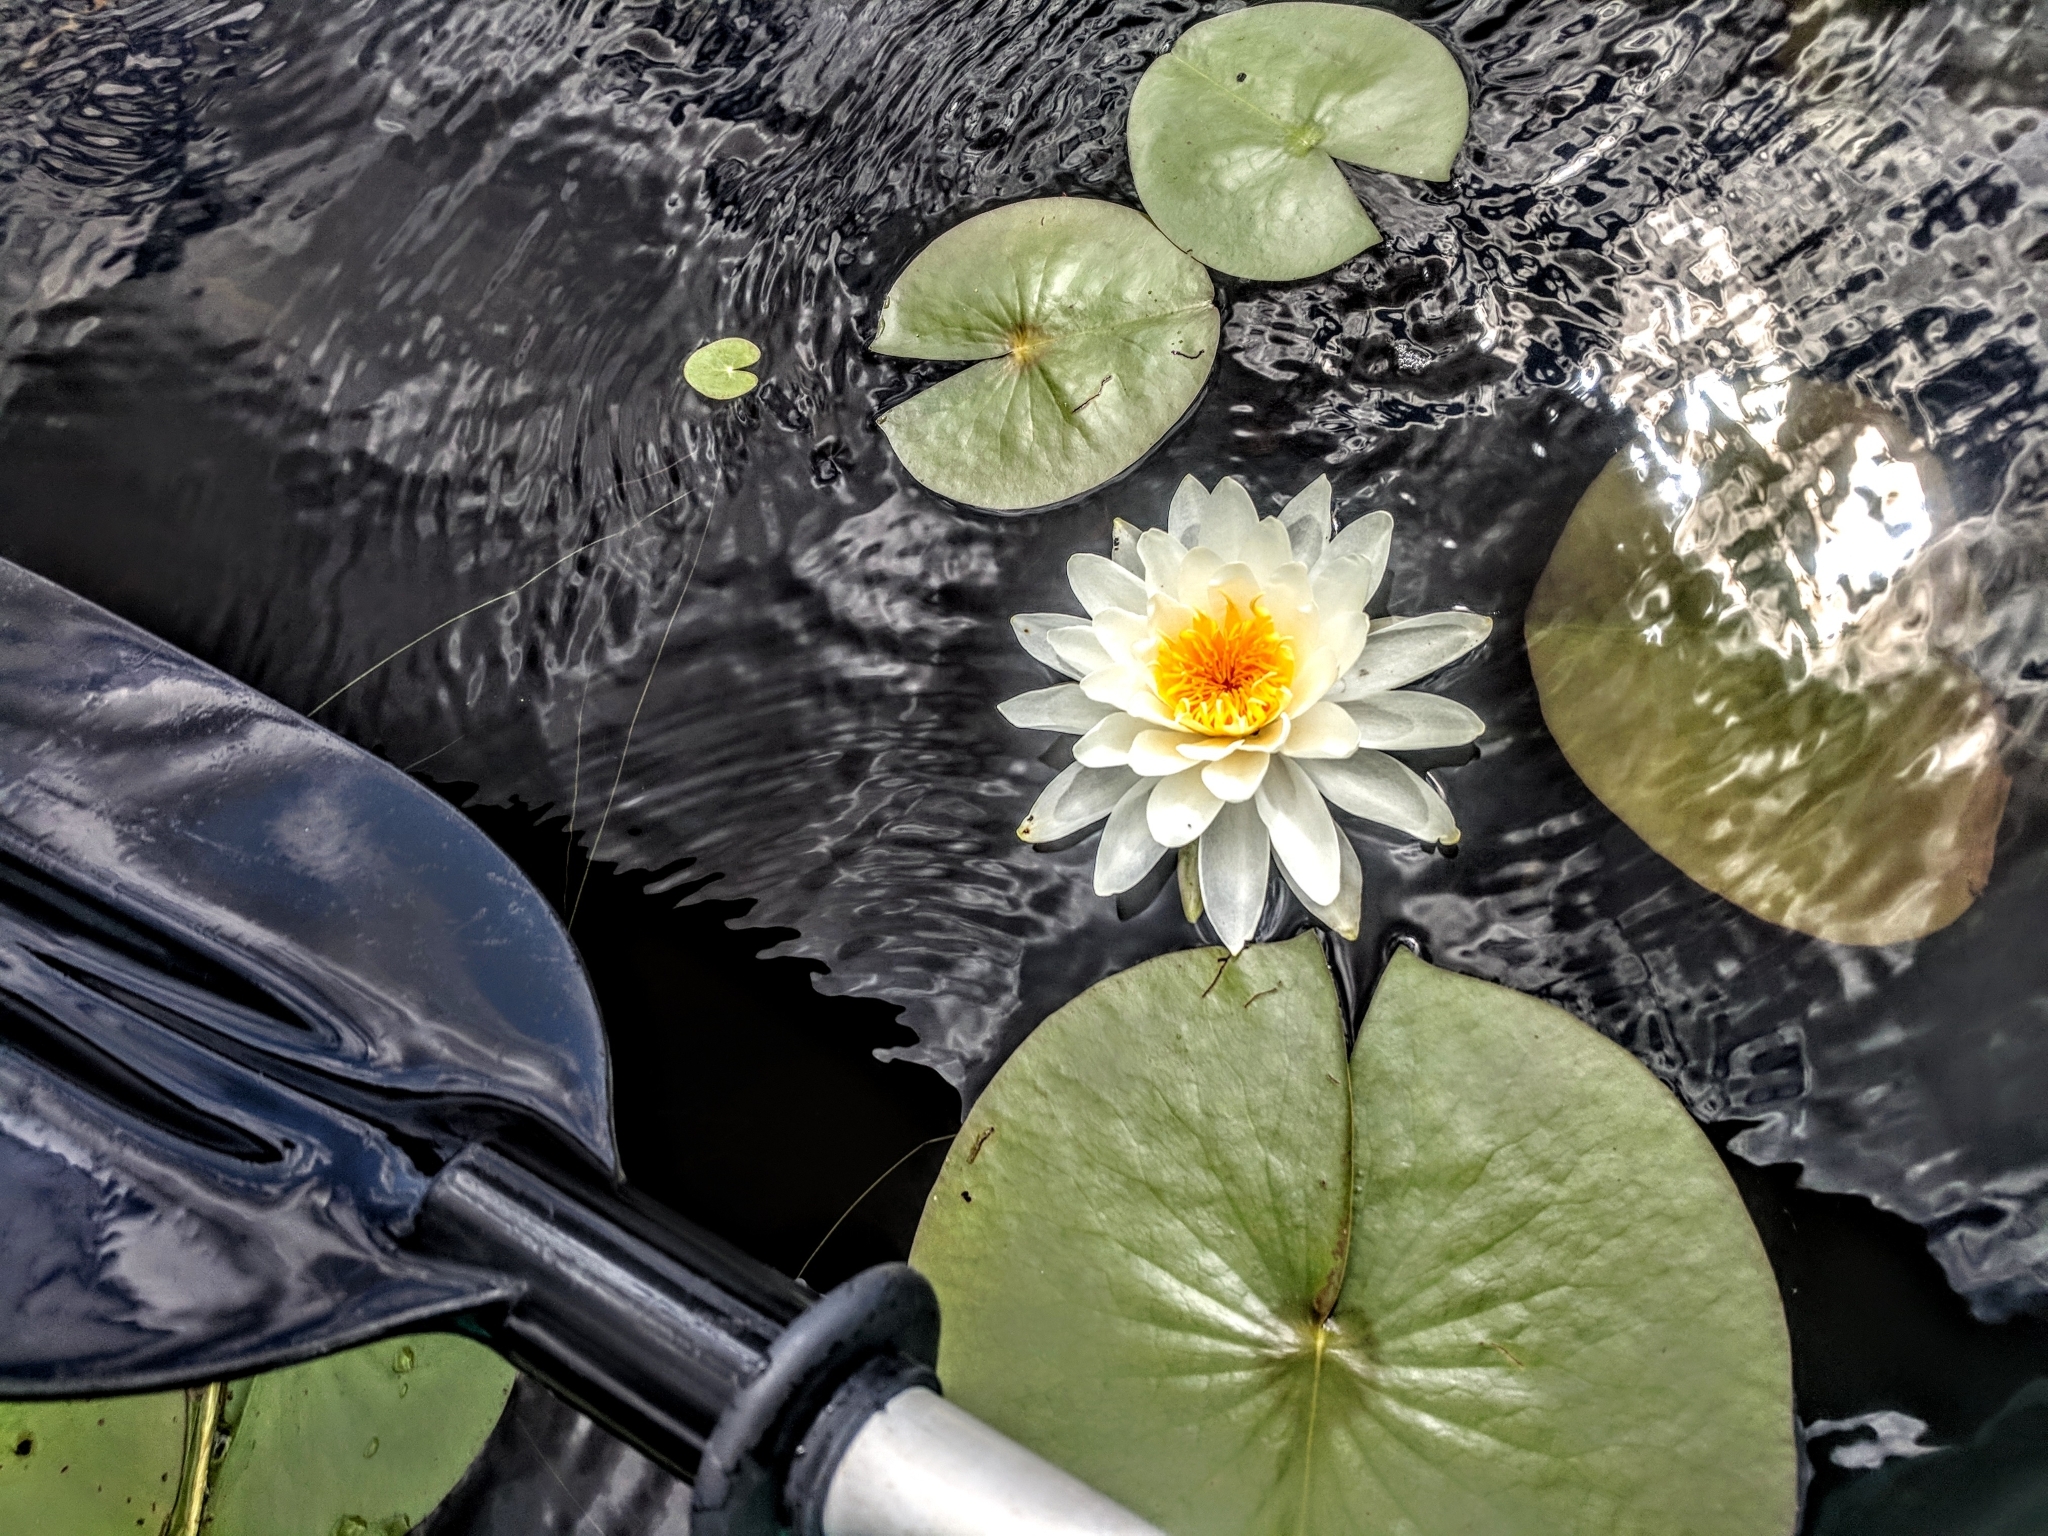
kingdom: Plantae
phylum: Tracheophyta
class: Magnoliopsida
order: Nymphaeales
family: Nymphaeaceae
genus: Nymphaea
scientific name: Nymphaea odorata
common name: Fragrant water-lily
